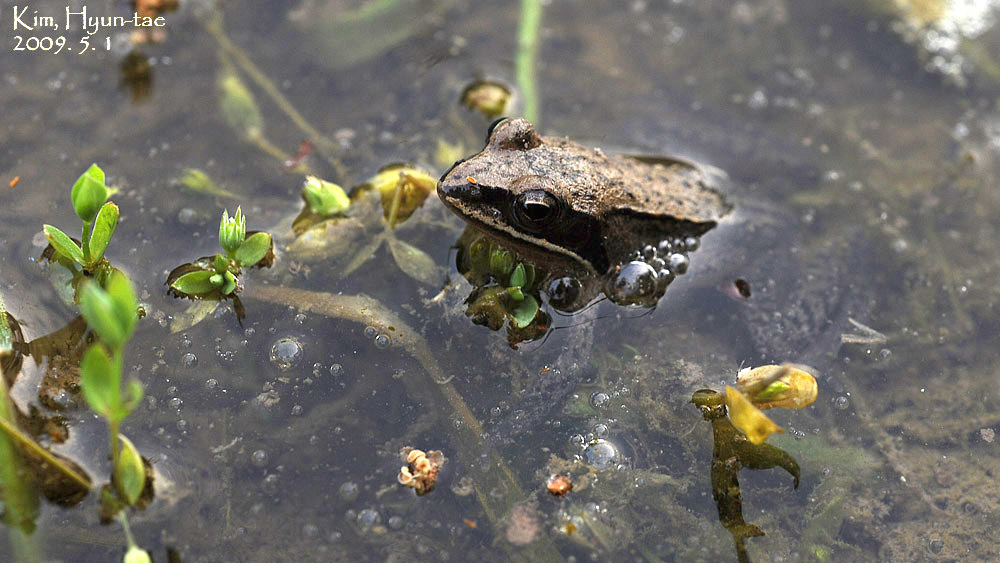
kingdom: Animalia
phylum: Chordata
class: Amphibia
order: Anura
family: Ranidae
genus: Rana
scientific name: Rana coreana
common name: Korean brown frog
